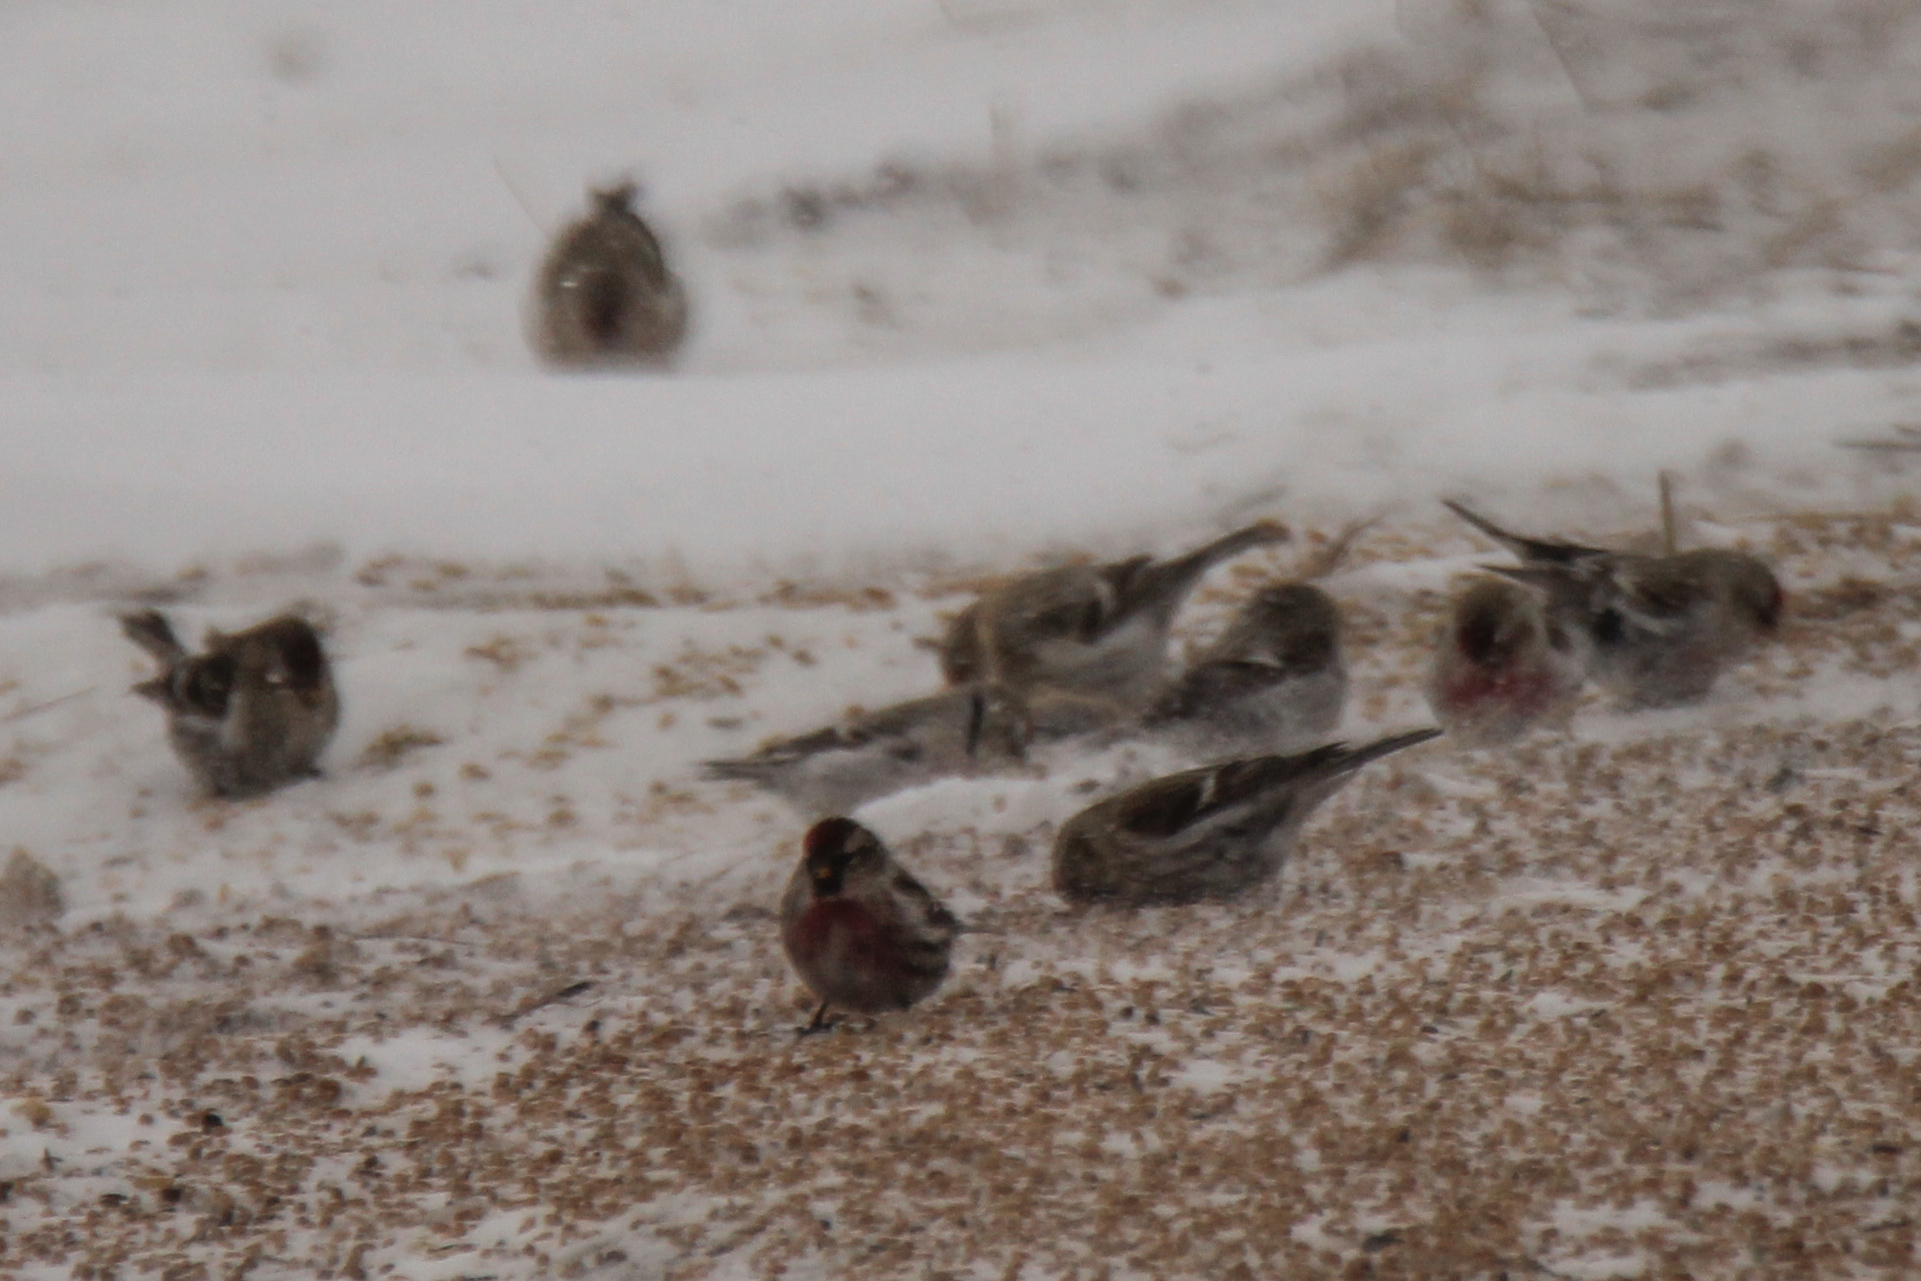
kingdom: Animalia
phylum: Chordata
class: Aves
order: Passeriformes
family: Fringillidae
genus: Acanthis
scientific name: Acanthis flammea
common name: Common redpoll
